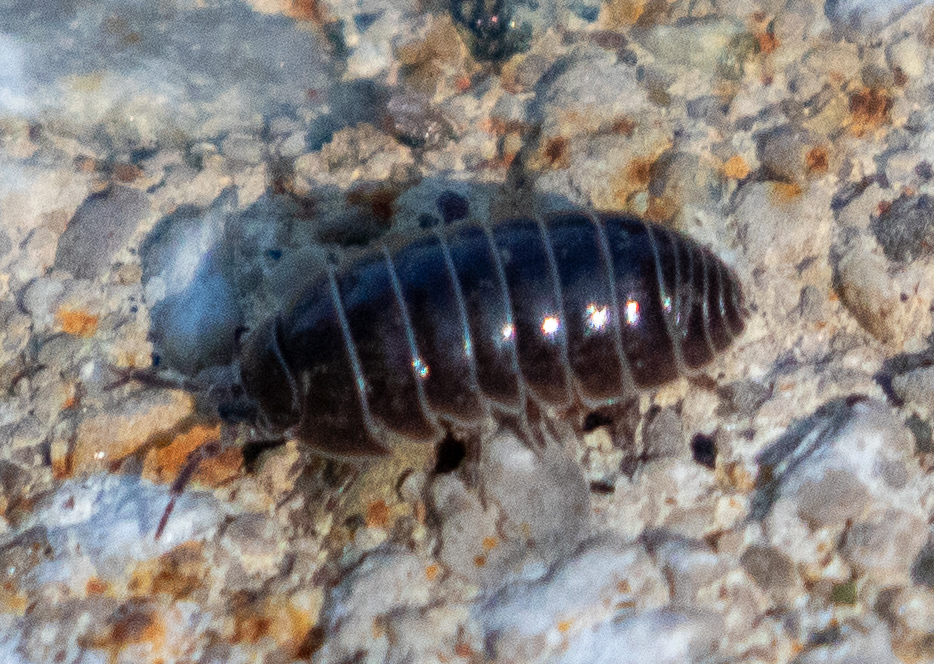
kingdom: Animalia
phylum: Arthropoda
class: Malacostraca
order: Isopoda
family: Armadillidiidae
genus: Armadillidium
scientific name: Armadillidium vulgare
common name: Common pill woodlouse
